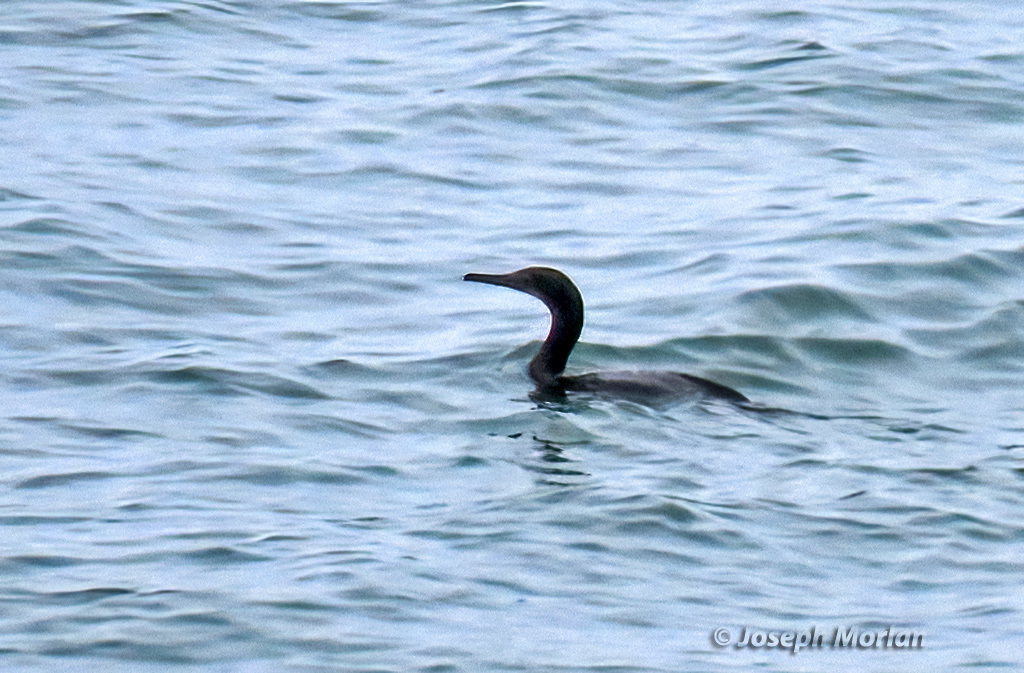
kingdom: Animalia
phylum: Chordata
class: Aves
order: Suliformes
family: Phalacrocoracidae
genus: Urile
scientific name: Urile penicillatus
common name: Brandt's cormorant
